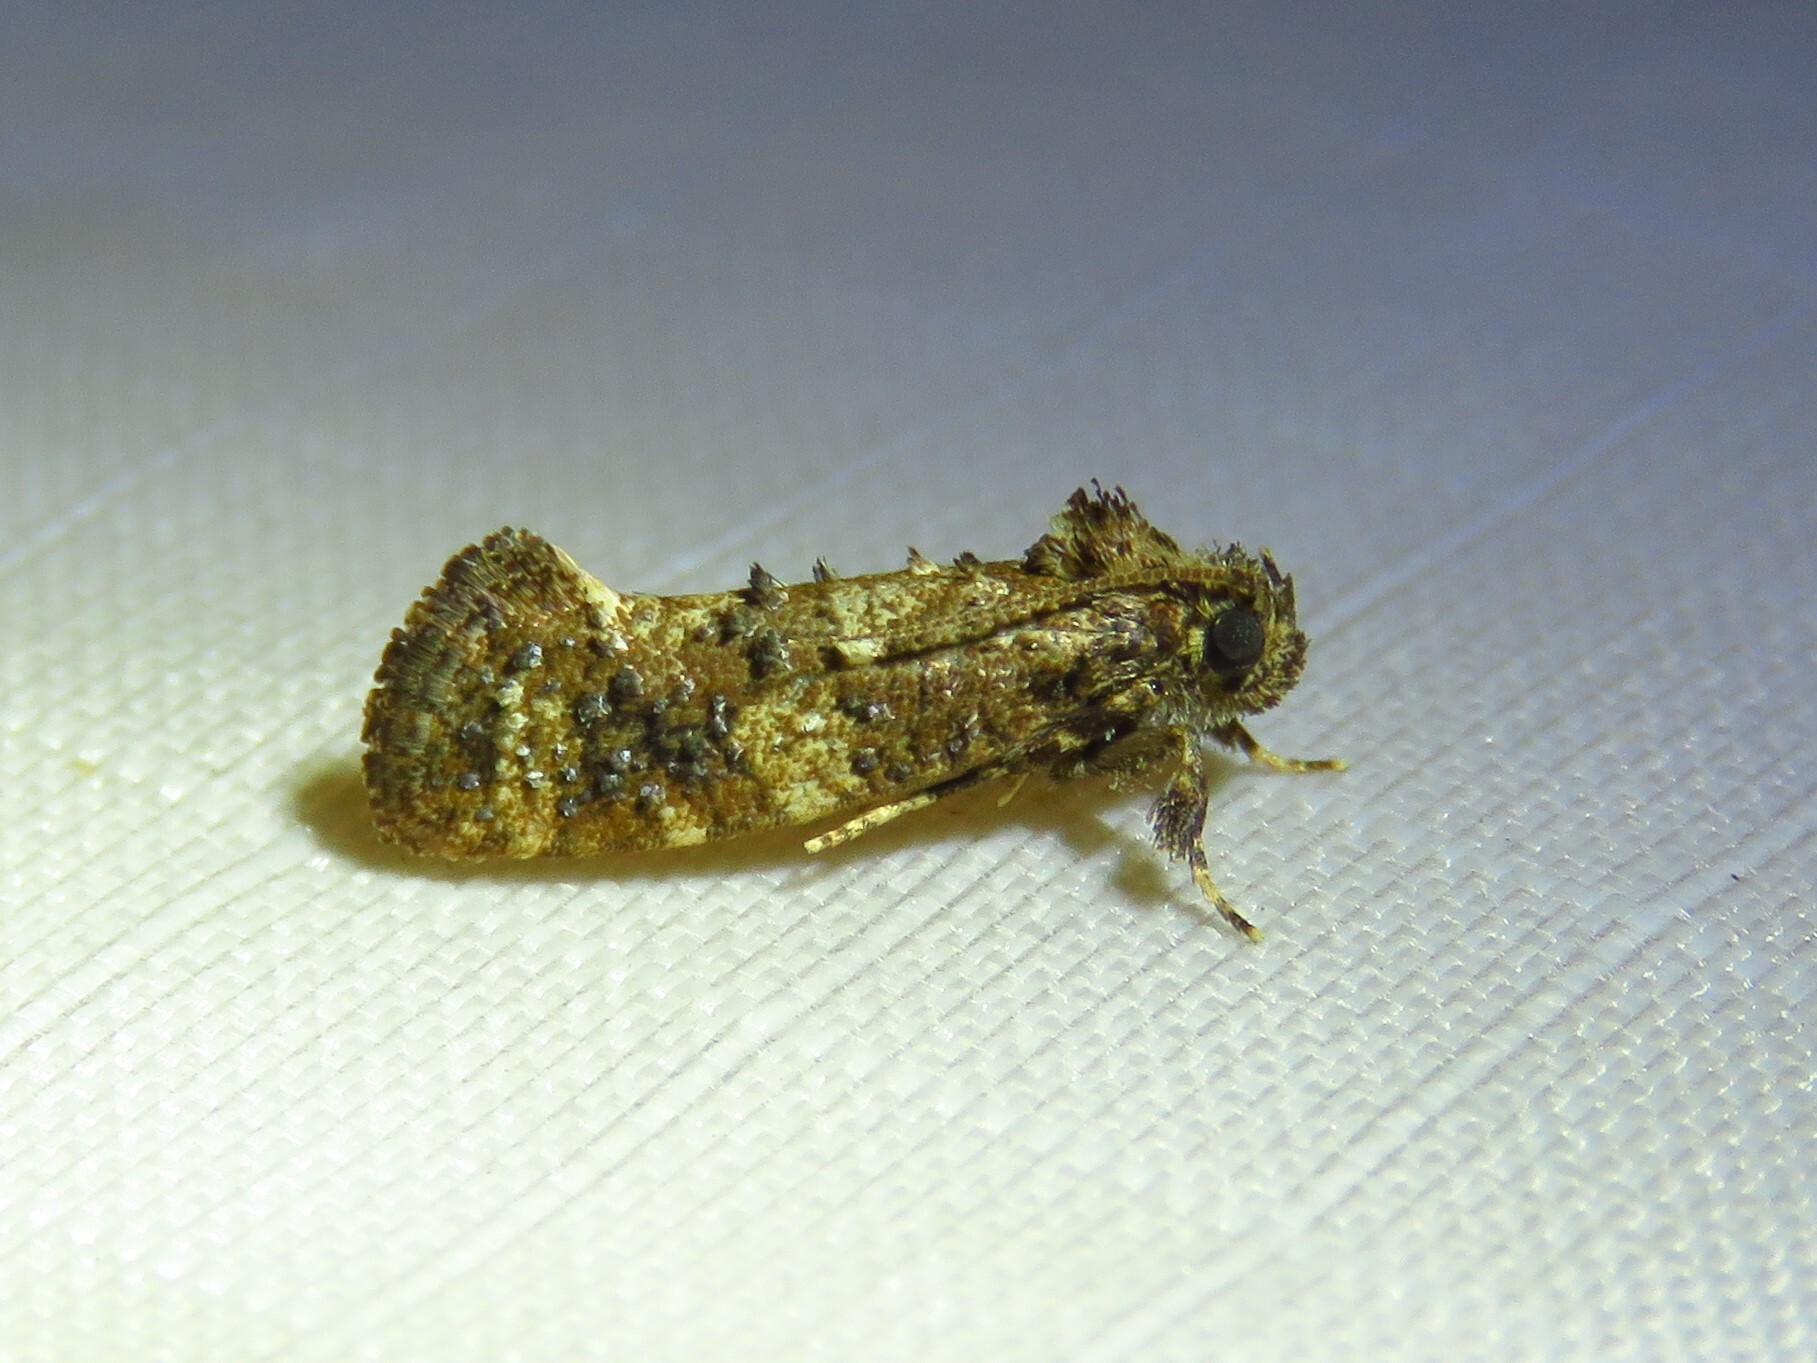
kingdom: Animalia
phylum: Arthropoda
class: Insecta
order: Lepidoptera
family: Tineidae
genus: Acrolophus
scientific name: Acrolophus cressoni
